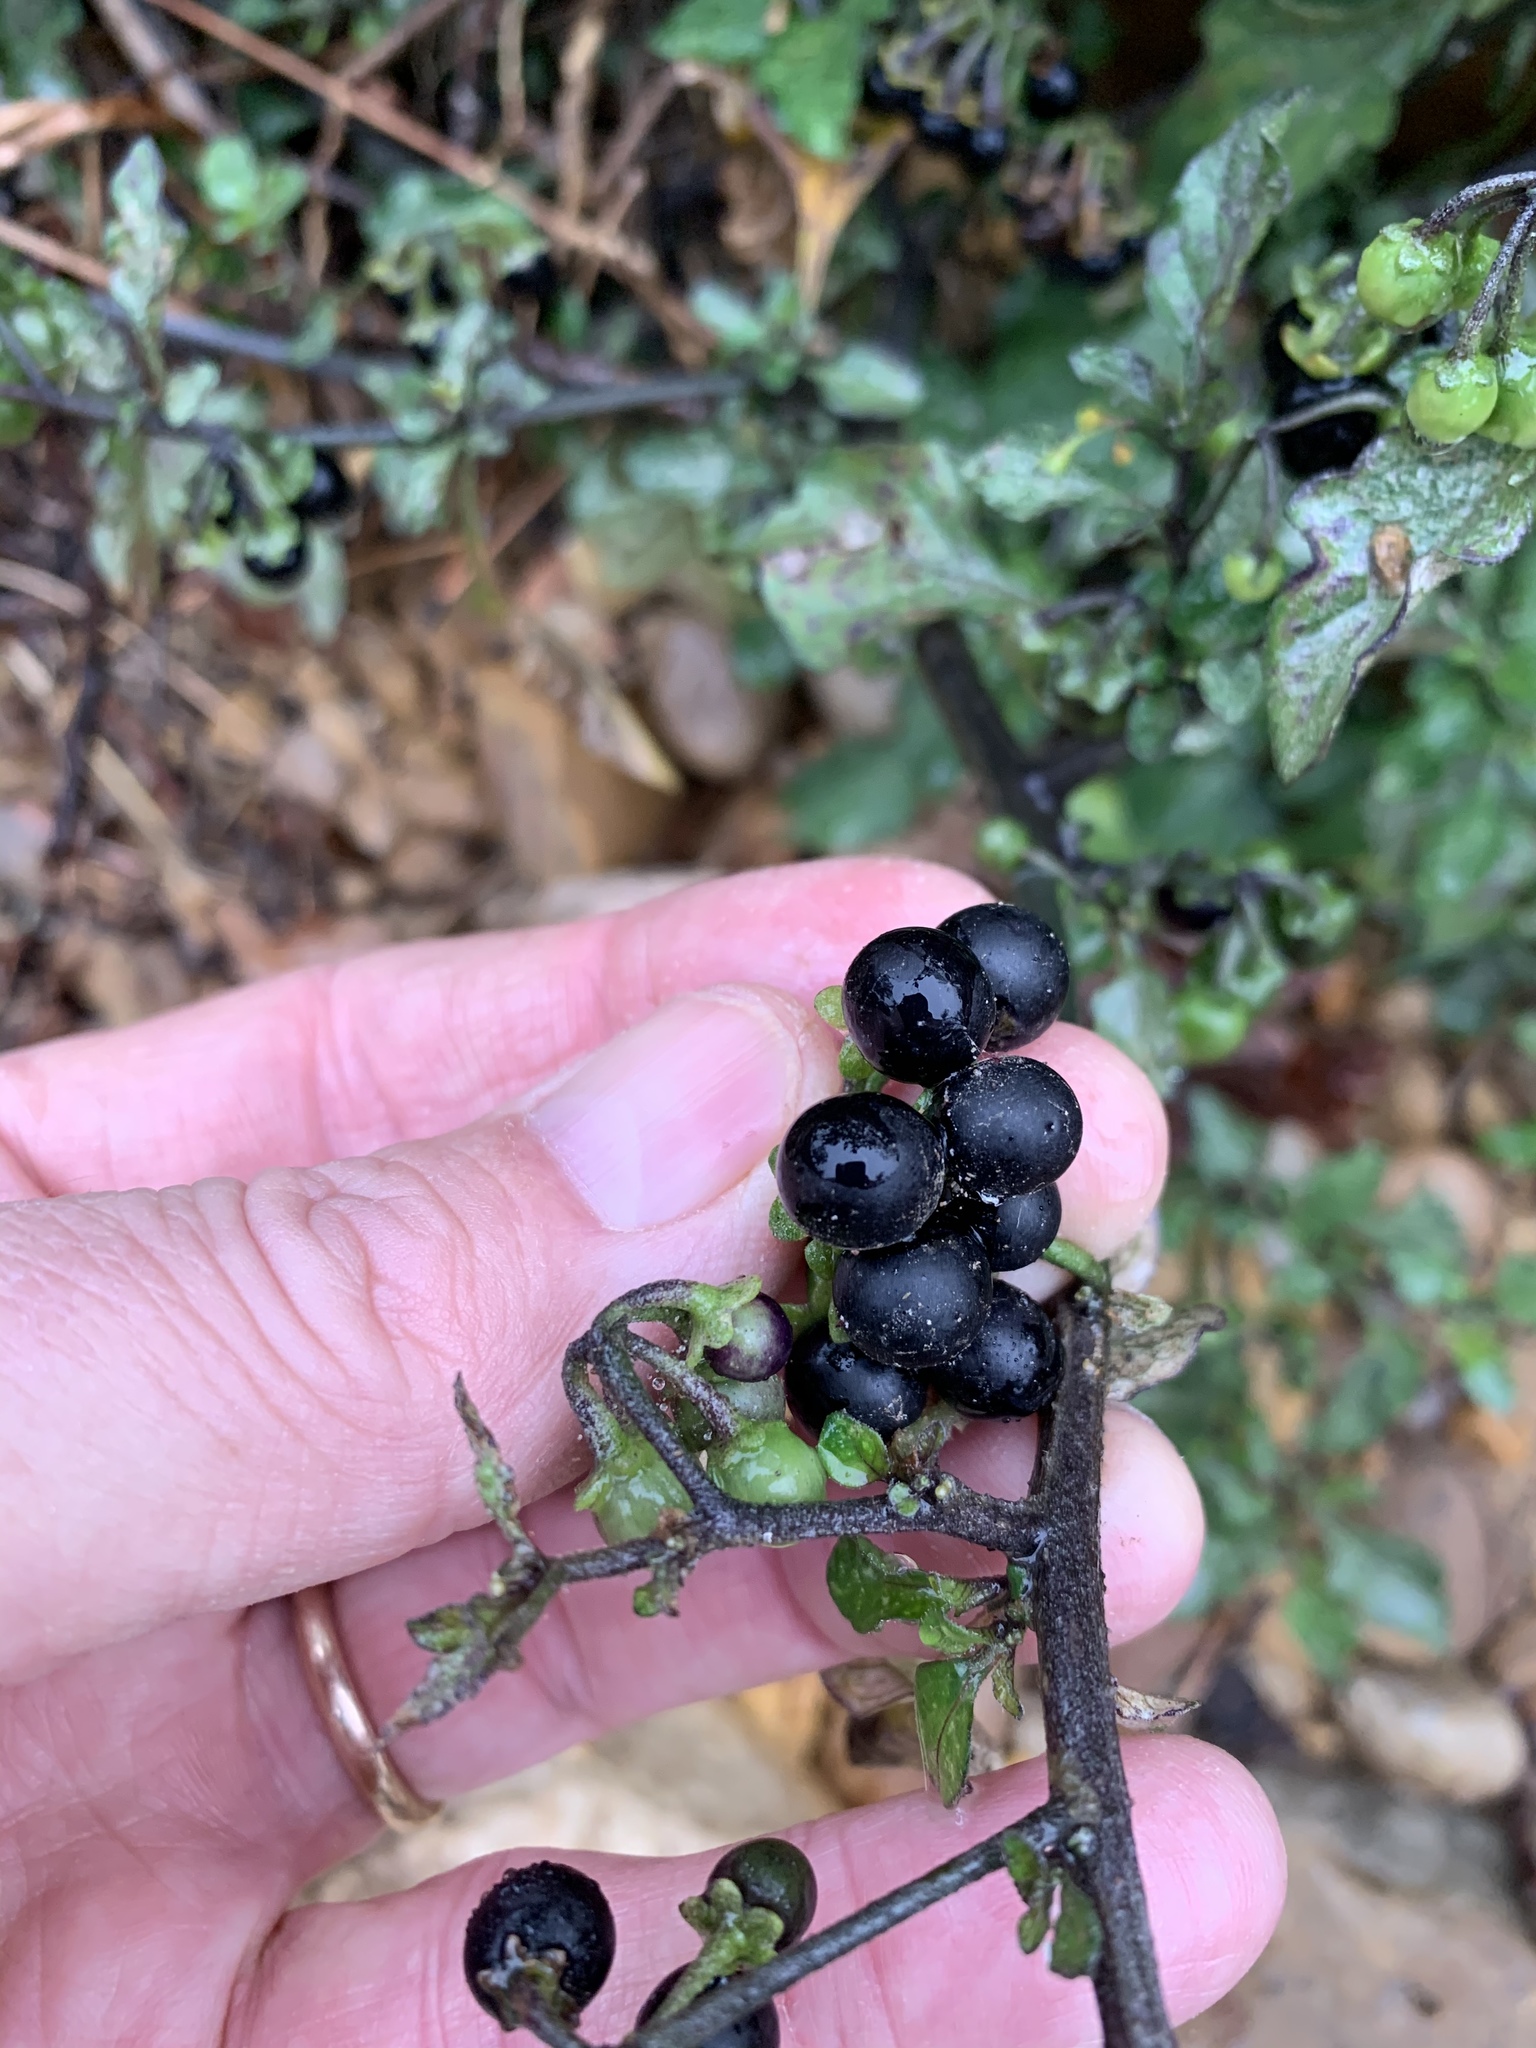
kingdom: Plantae
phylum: Tracheophyta
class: Magnoliopsida
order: Solanales
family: Solanaceae
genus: Solanum
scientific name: Solanum nigrum
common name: Black nightshade
